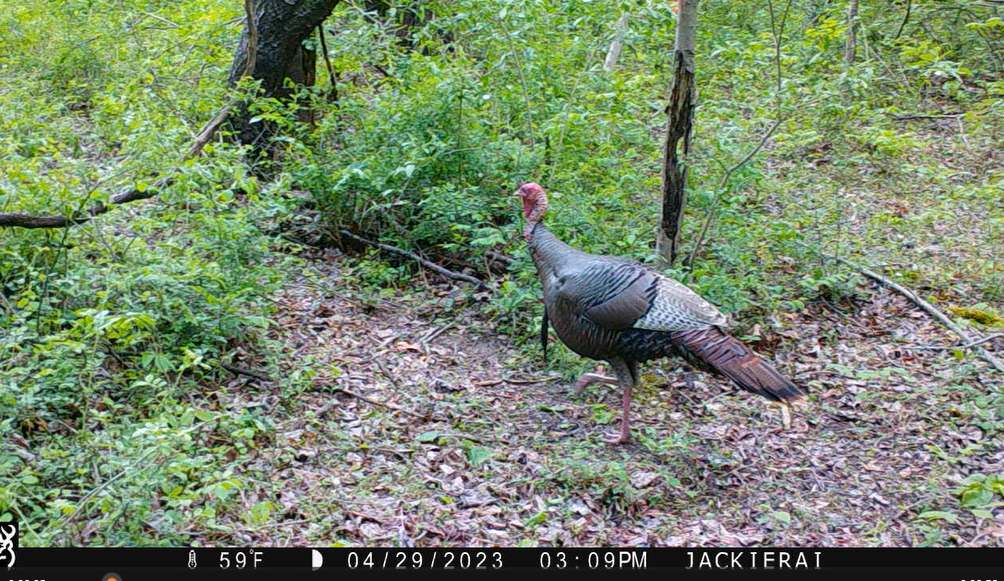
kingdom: Animalia
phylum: Chordata
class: Aves
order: Galliformes
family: Phasianidae
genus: Meleagris
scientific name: Meleagris gallopavo
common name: Wild turkey
